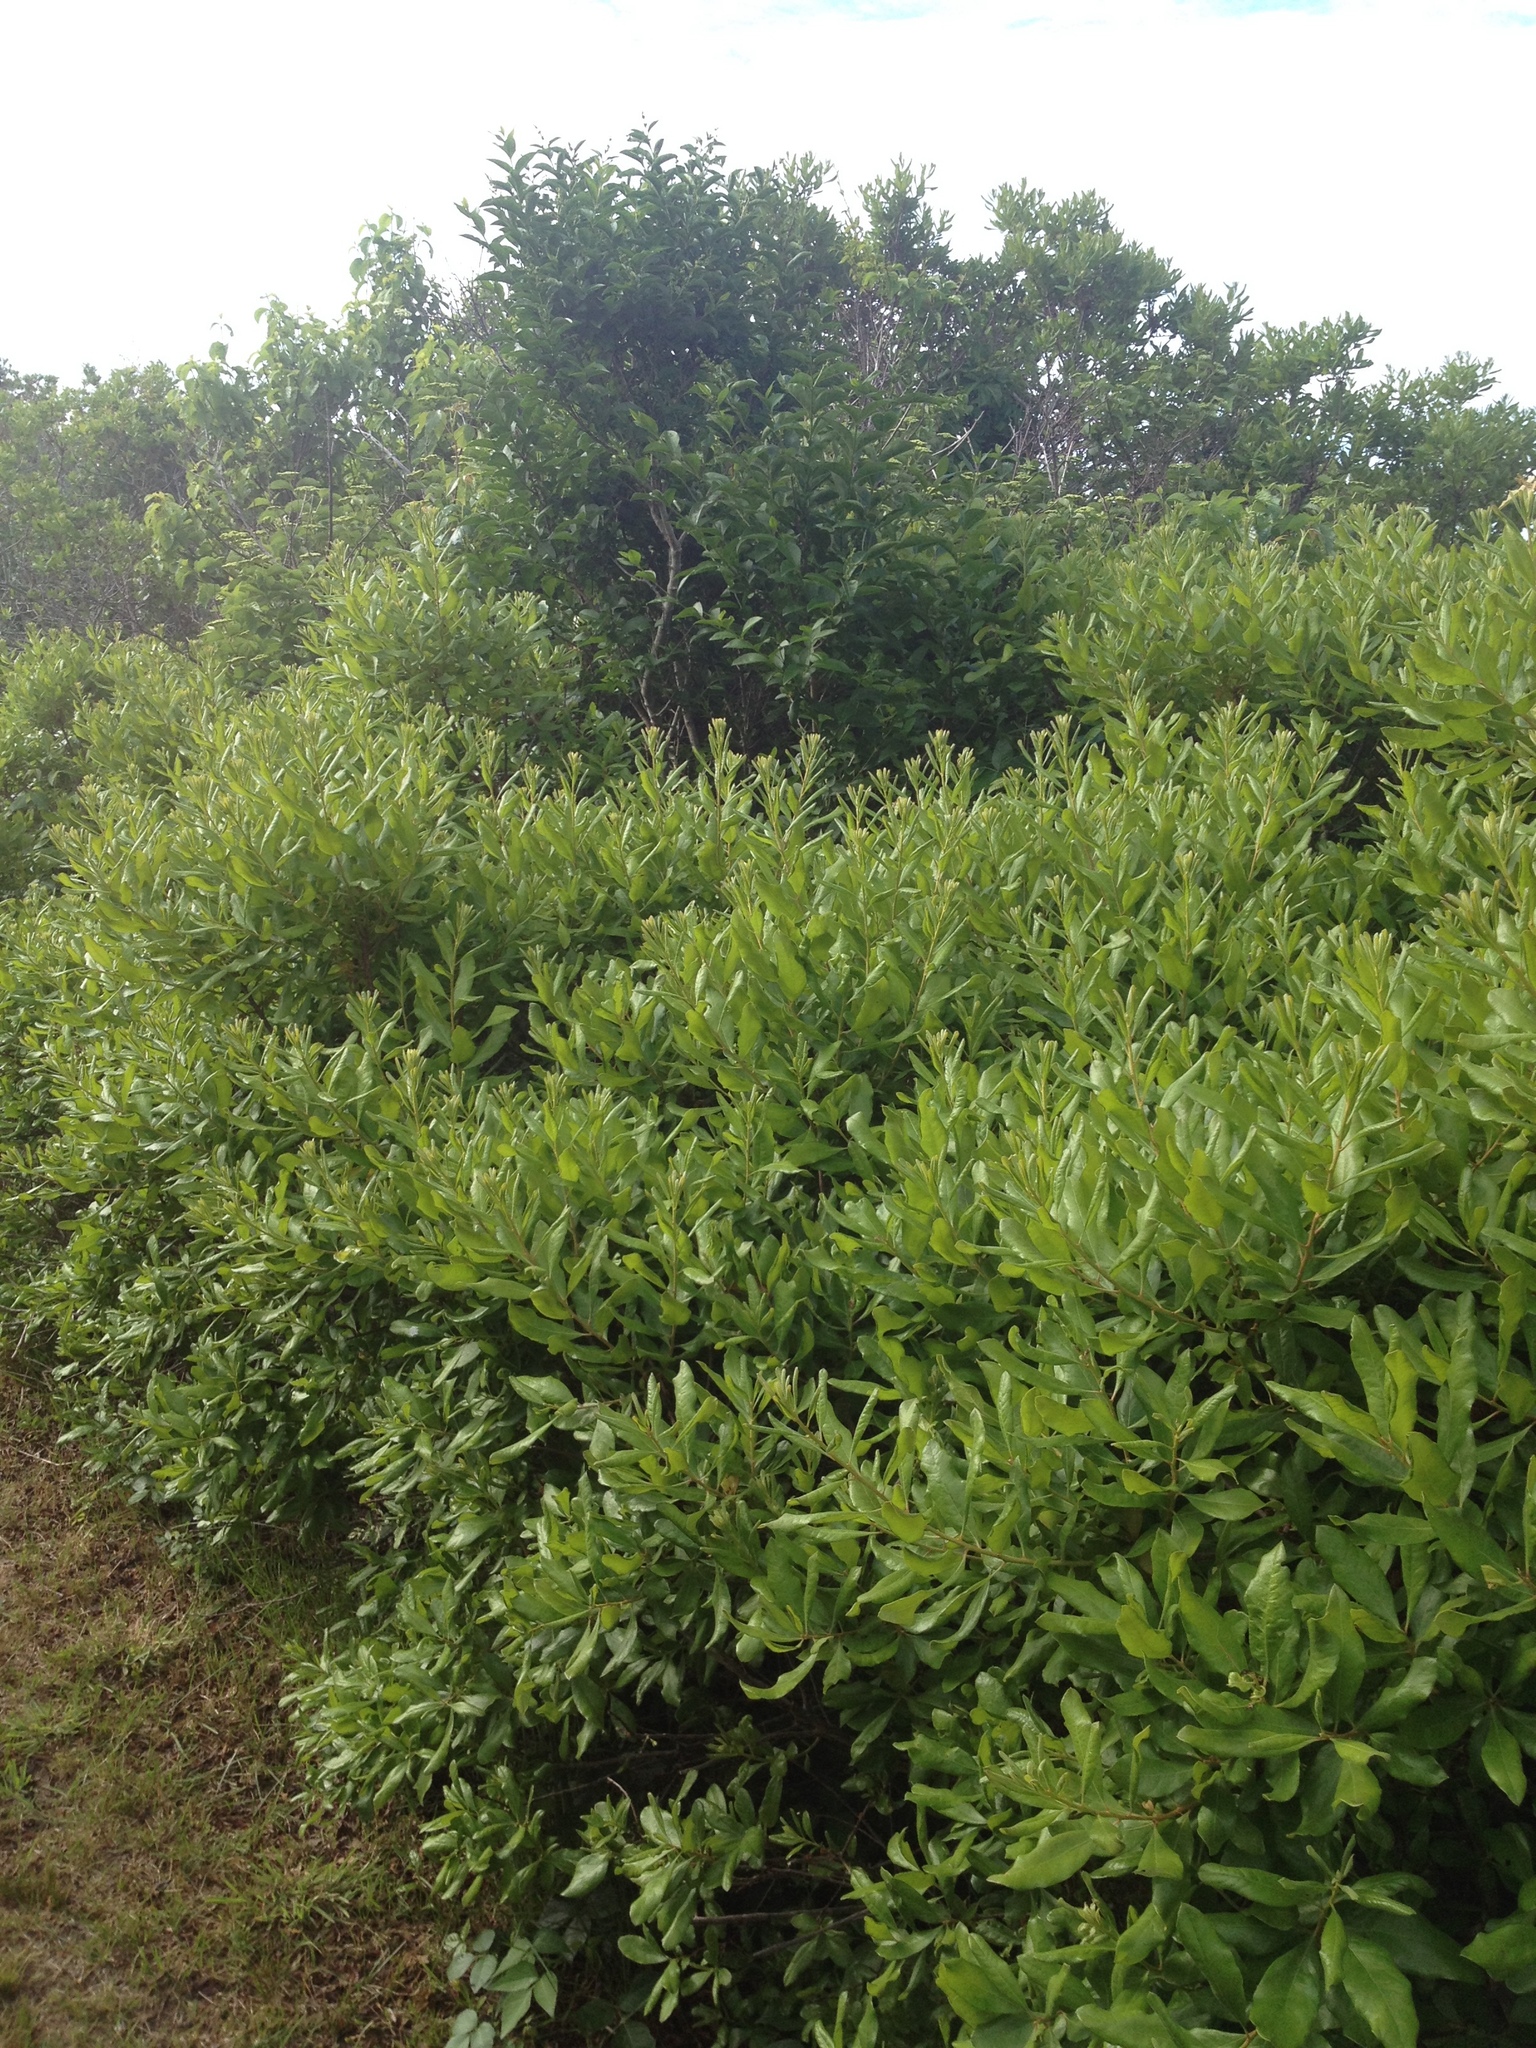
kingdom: Plantae
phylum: Tracheophyta
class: Magnoliopsida
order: Fagales
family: Myricaceae
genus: Morella
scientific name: Morella pensylvanica
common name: Northern bayberry
